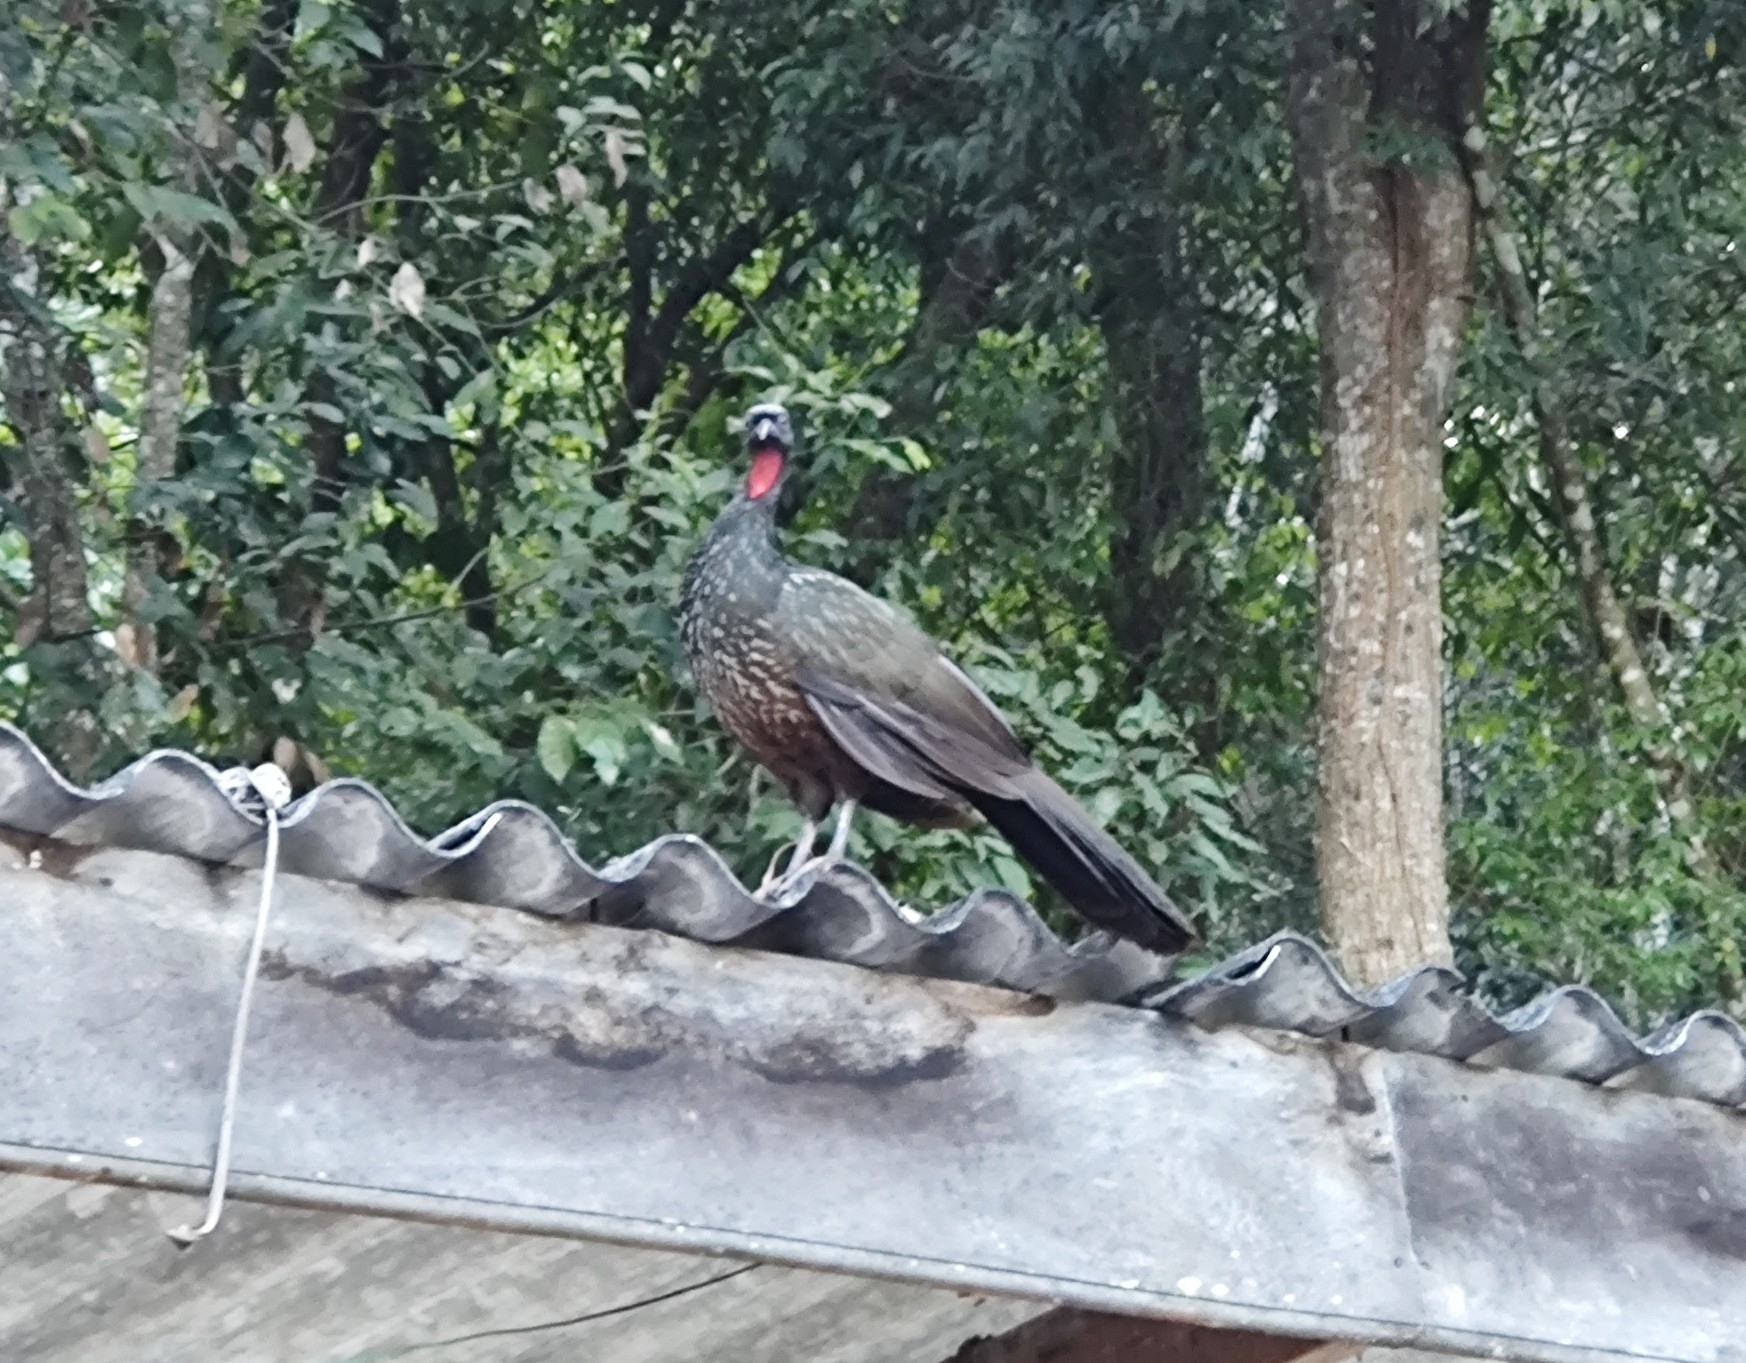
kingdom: Animalia
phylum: Chordata
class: Aves
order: Galliformes
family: Cracidae
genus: Penelope
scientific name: Penelope obscura
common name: Dusky-legged guan
